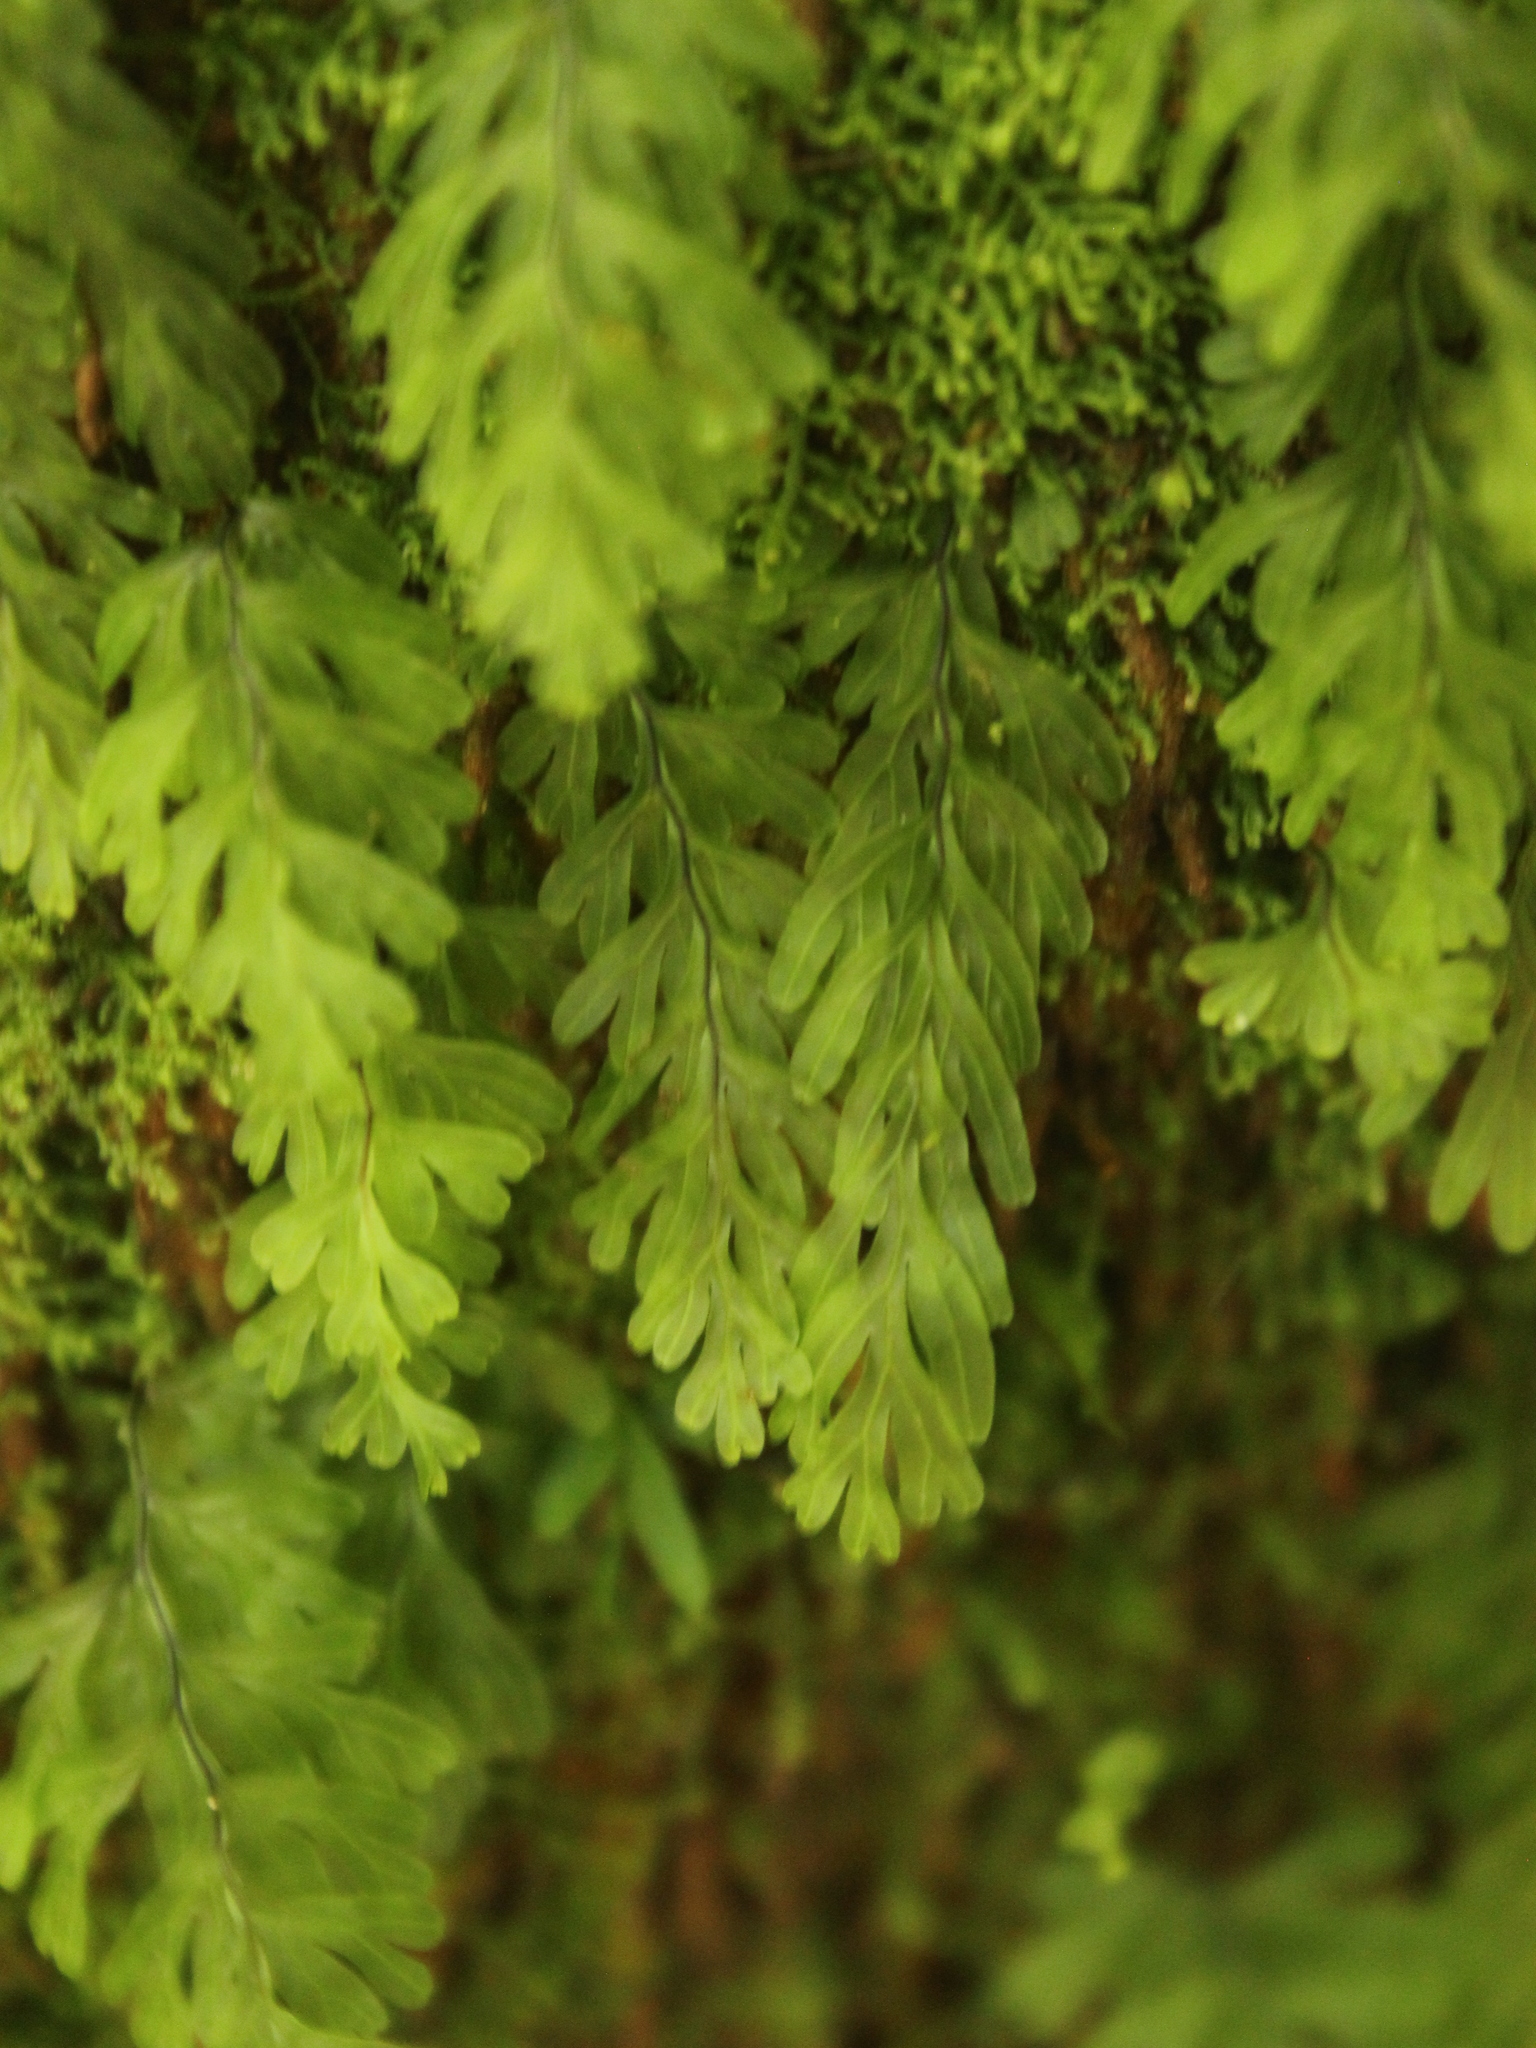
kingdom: Plantae
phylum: Tracheophyta
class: Polypodiopsida
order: Hymenophyllales
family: Hymenophyllaceae
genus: Hymenophyllum
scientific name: Hymenophyllum rarum
